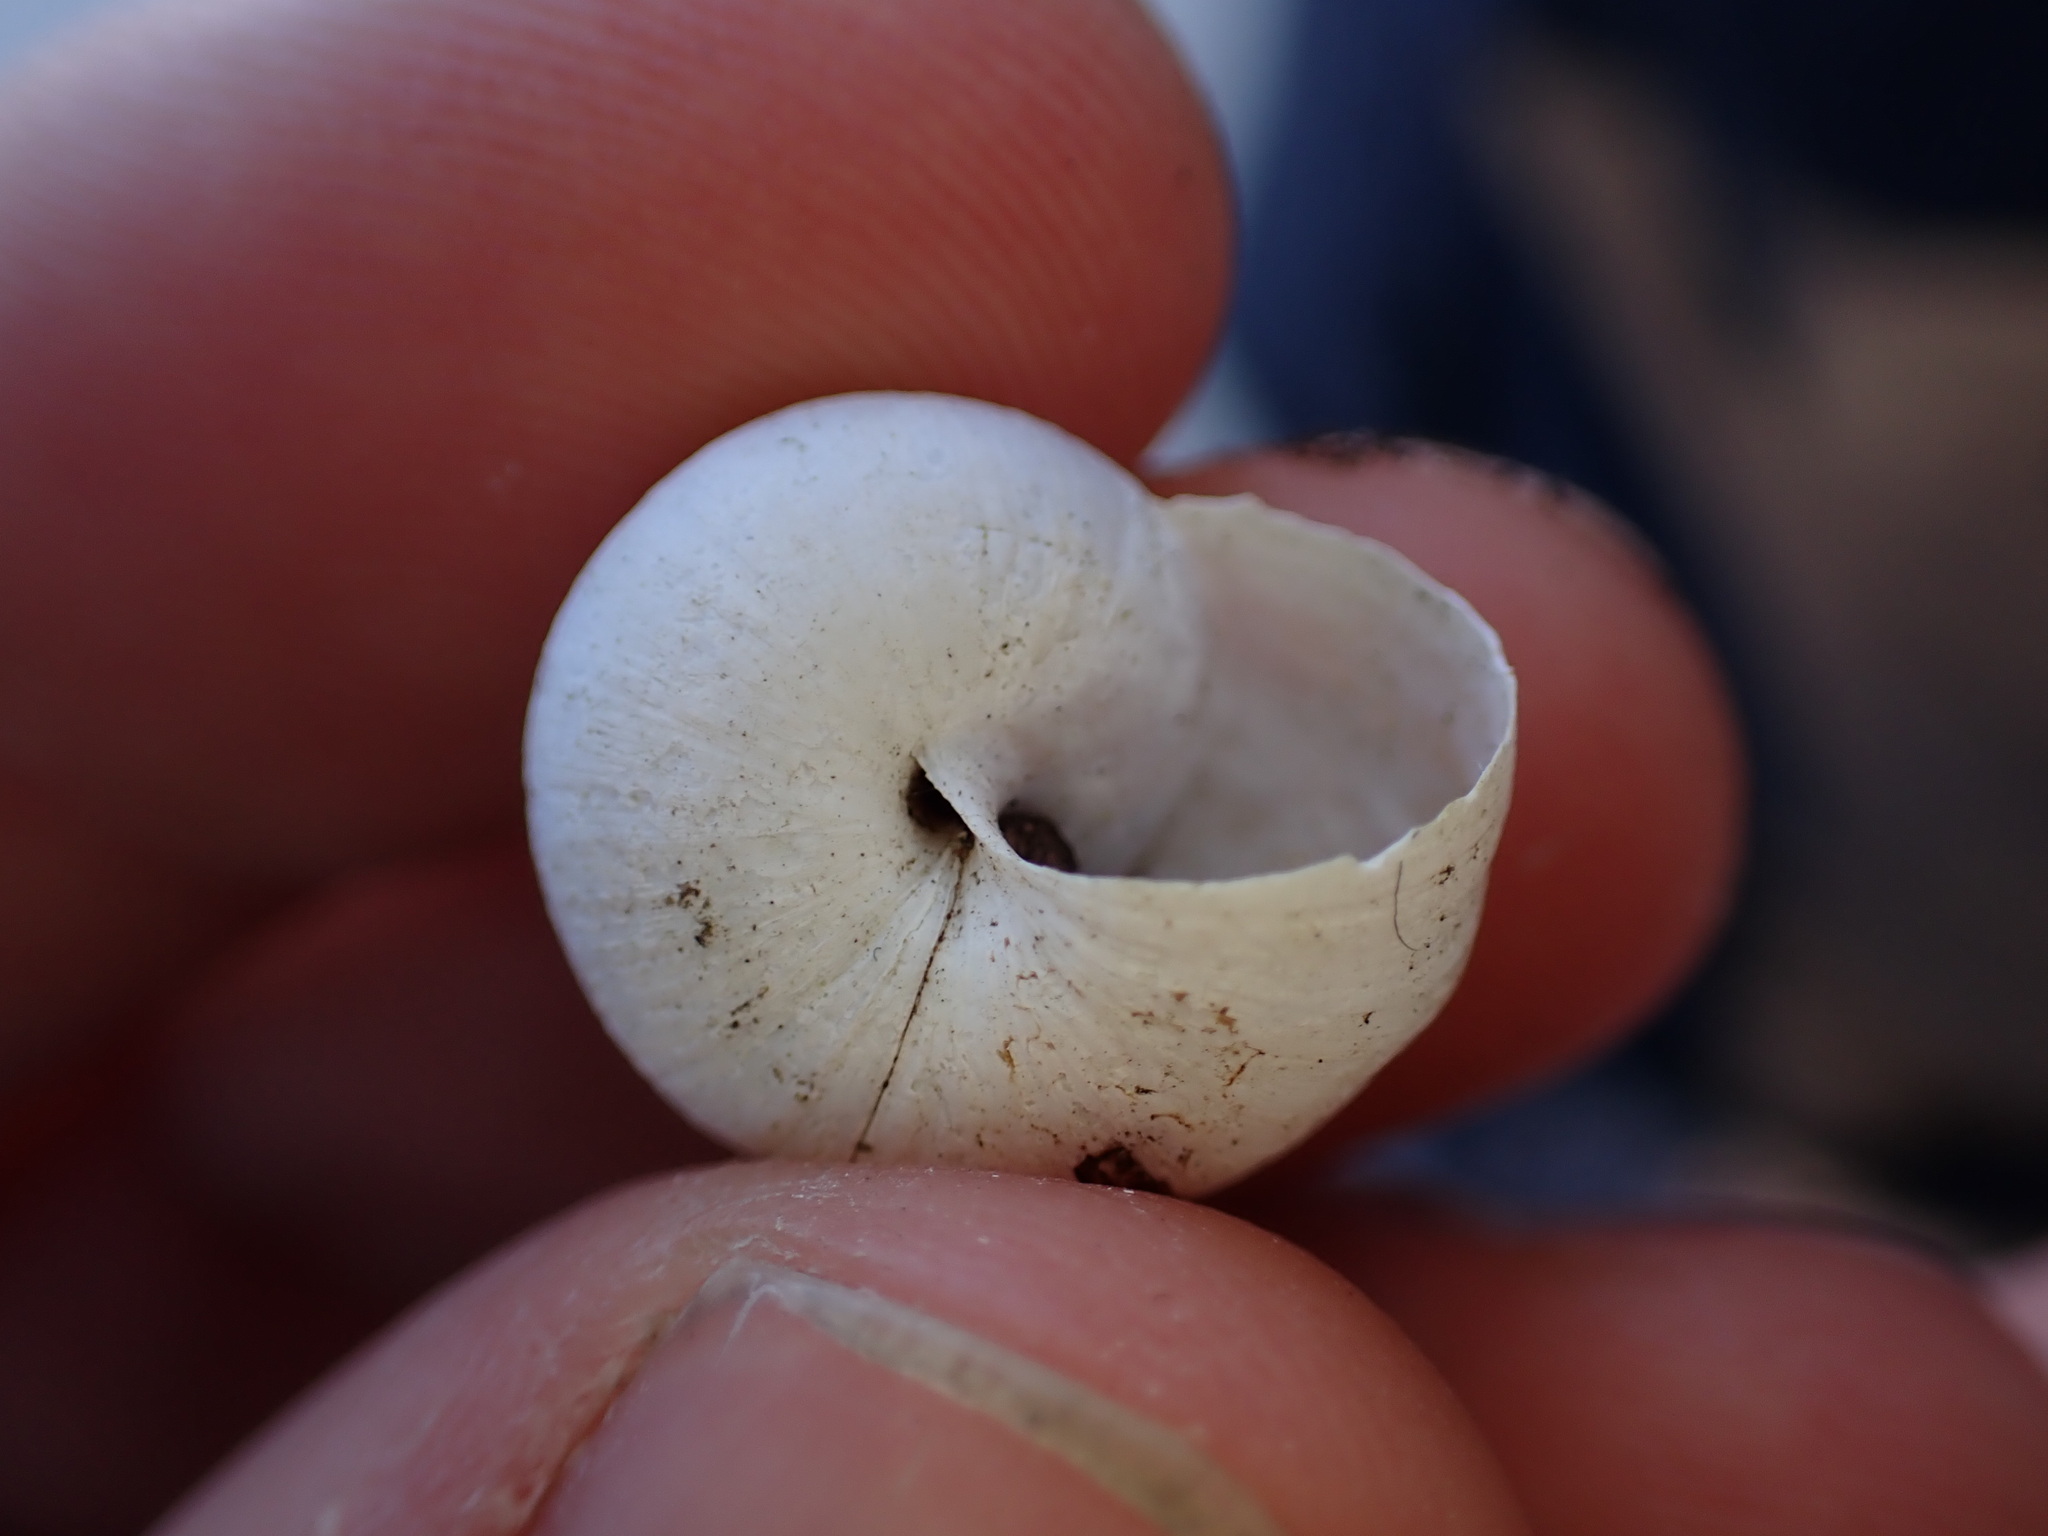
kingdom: Animalia
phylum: Mollusca
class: Gastropoda
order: Stylommatophora
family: Helicidae
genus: Eobania
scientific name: Eobania vermiculata
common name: Chocolateband snail
